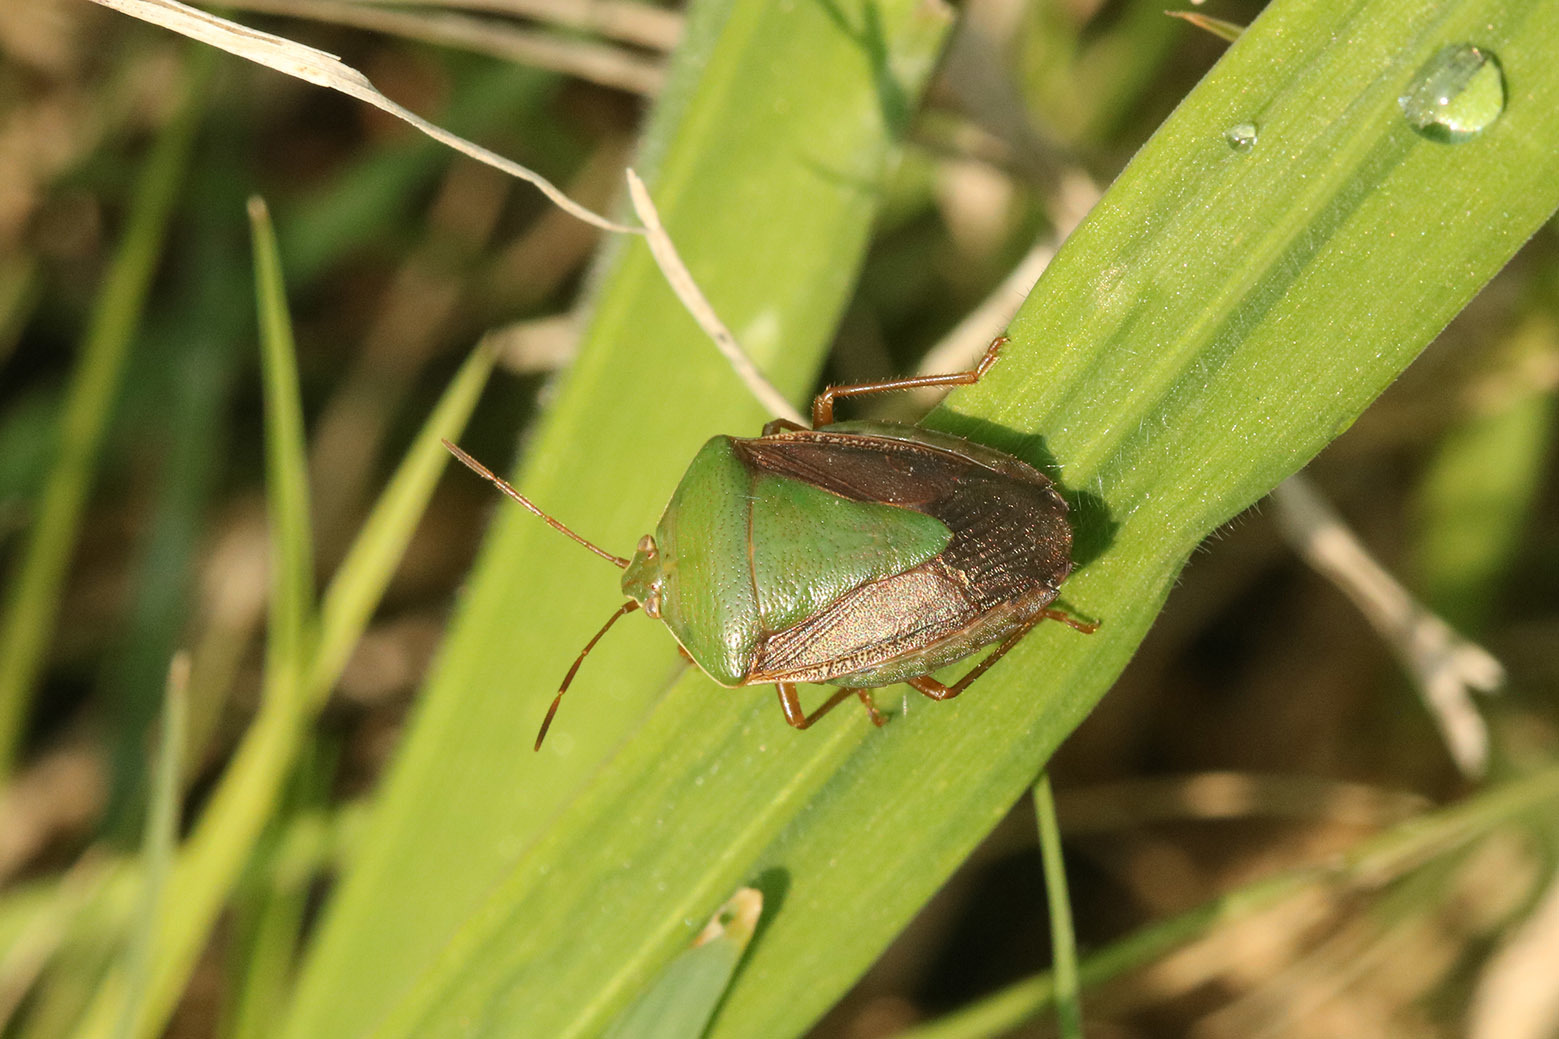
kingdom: Animalia
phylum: Arthropoda
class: Insecta
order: Hemiptera
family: Pentatomidae
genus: Edessa
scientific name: Edessa meditabunda
